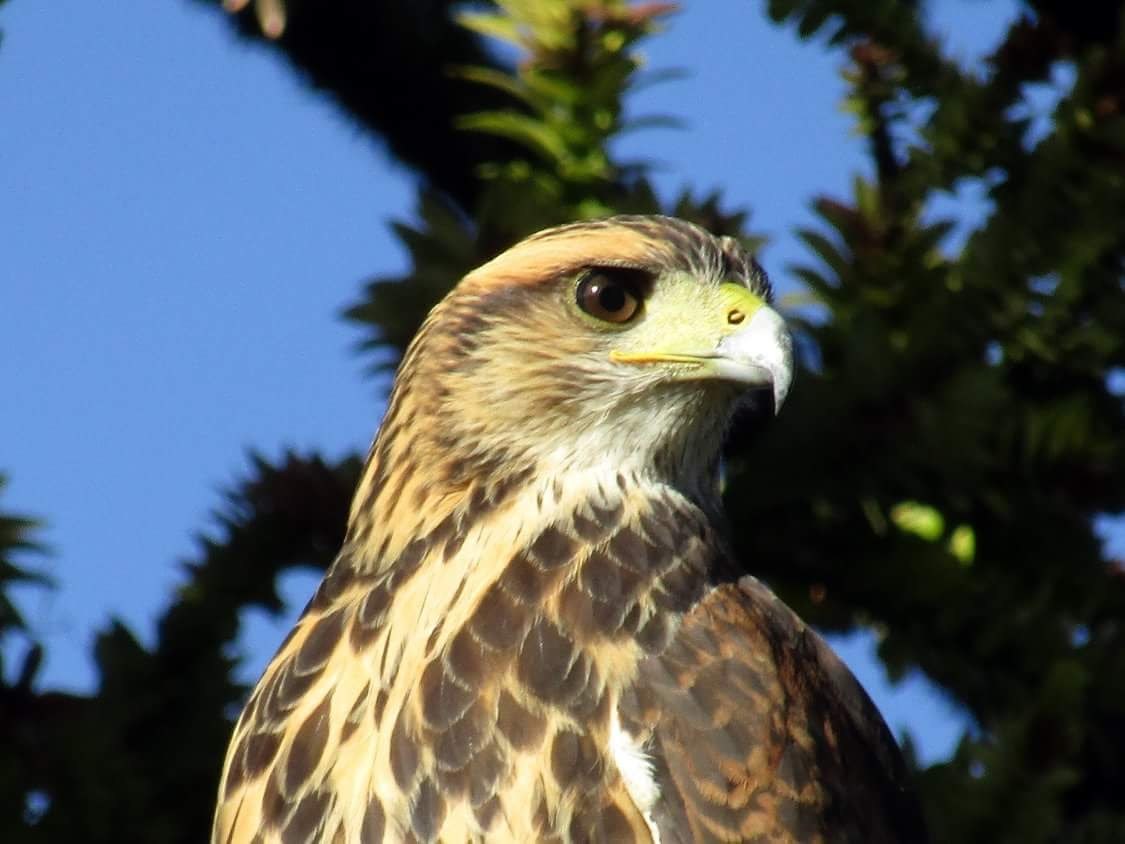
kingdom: Animalia
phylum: Chordata
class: Aves
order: Accipitriformes
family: Accipitridae
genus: Parabuteo
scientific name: Parabuteo unicinctus
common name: Harris's hawk
